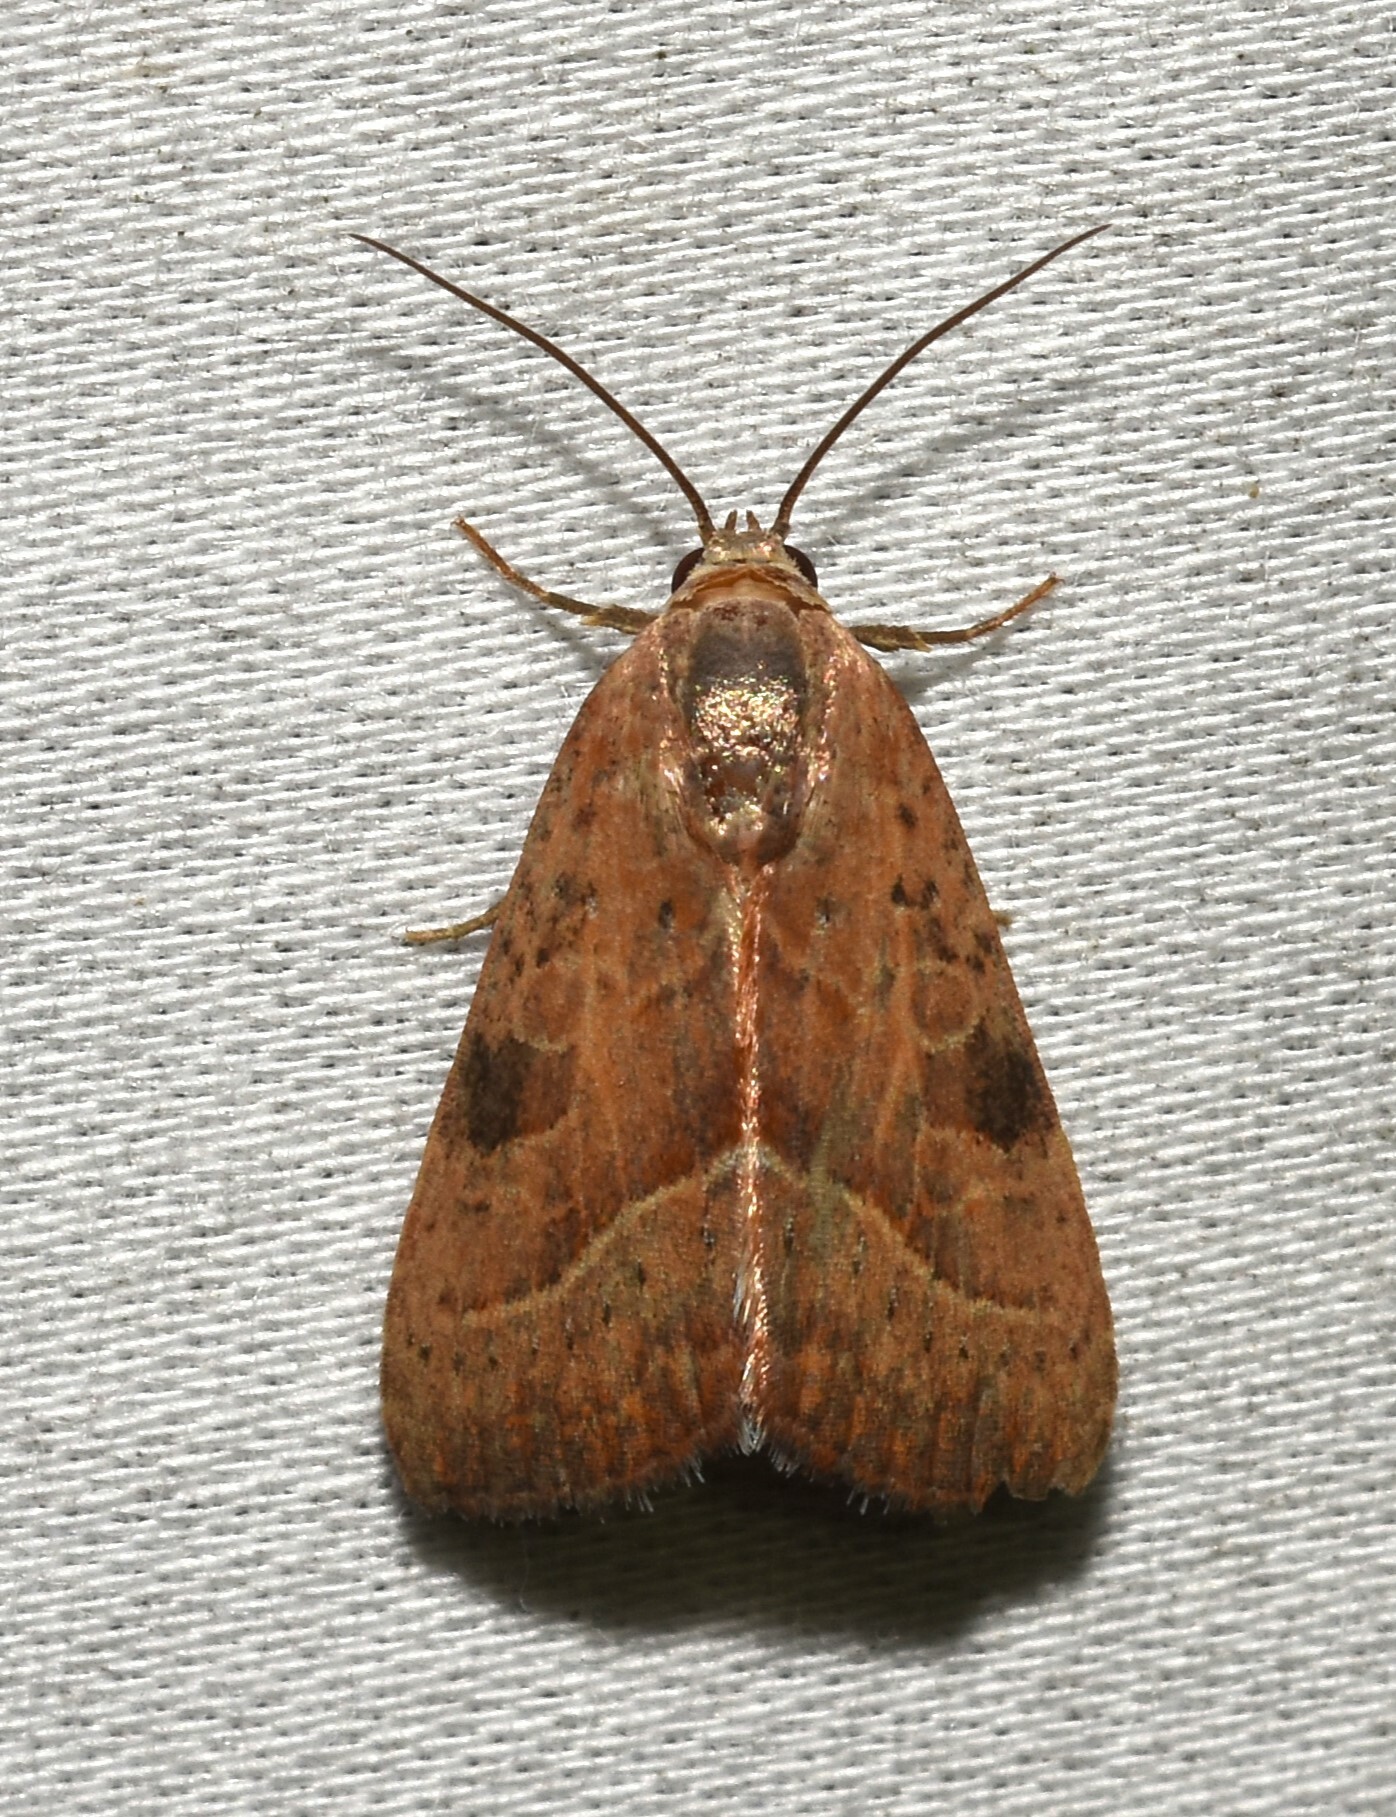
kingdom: Animalia
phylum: Arthropoda
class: Insecta
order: Lepidoptera
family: Noctuidae
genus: Galgula
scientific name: Galgula partita
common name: Wedgeling
